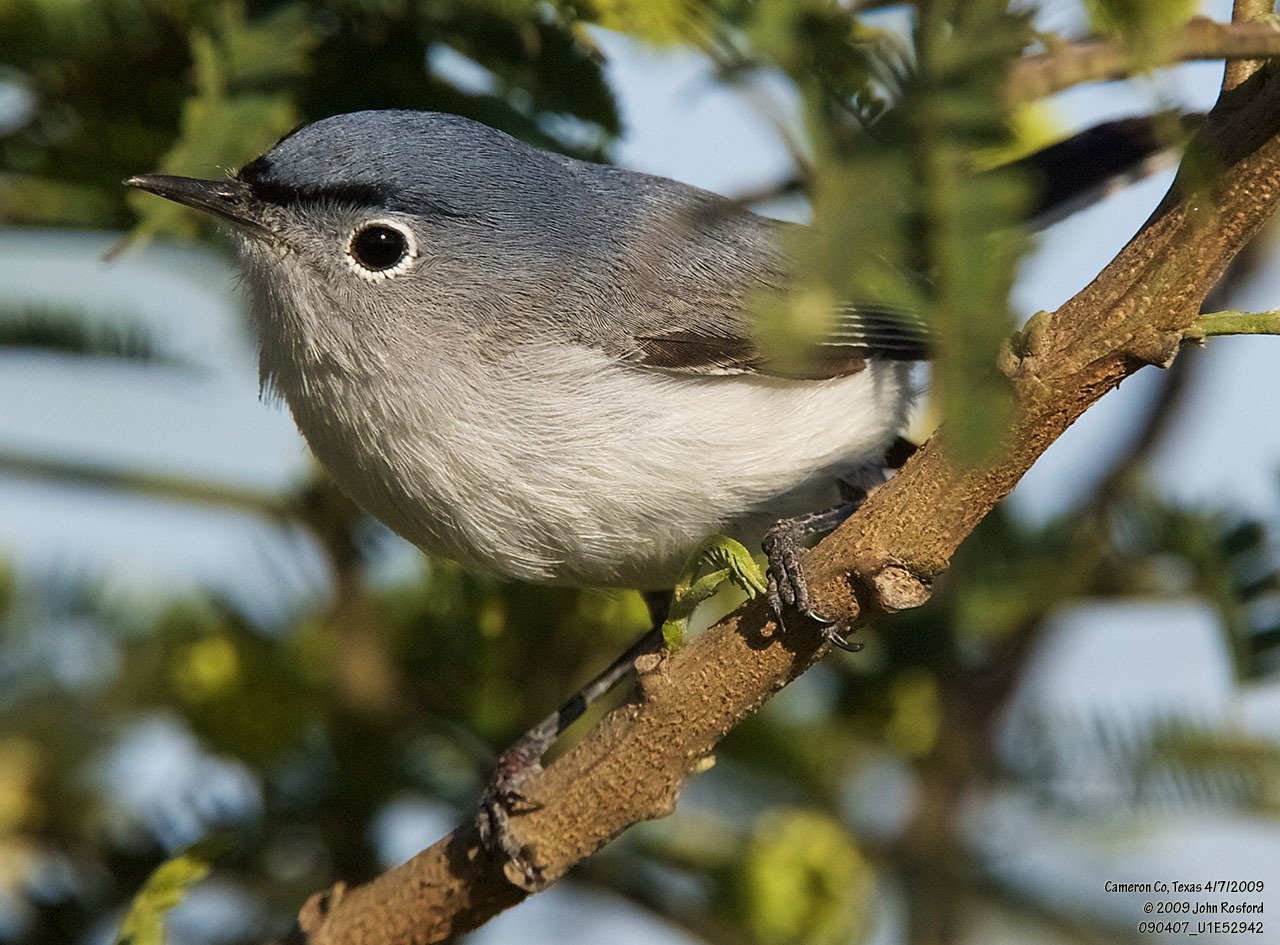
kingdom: Animalia
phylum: Chordata
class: Aves
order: Passeriformes
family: Polioptilidae
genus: Polioptila
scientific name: Polioptila caerulea
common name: Blue-gray gnatcatcher
